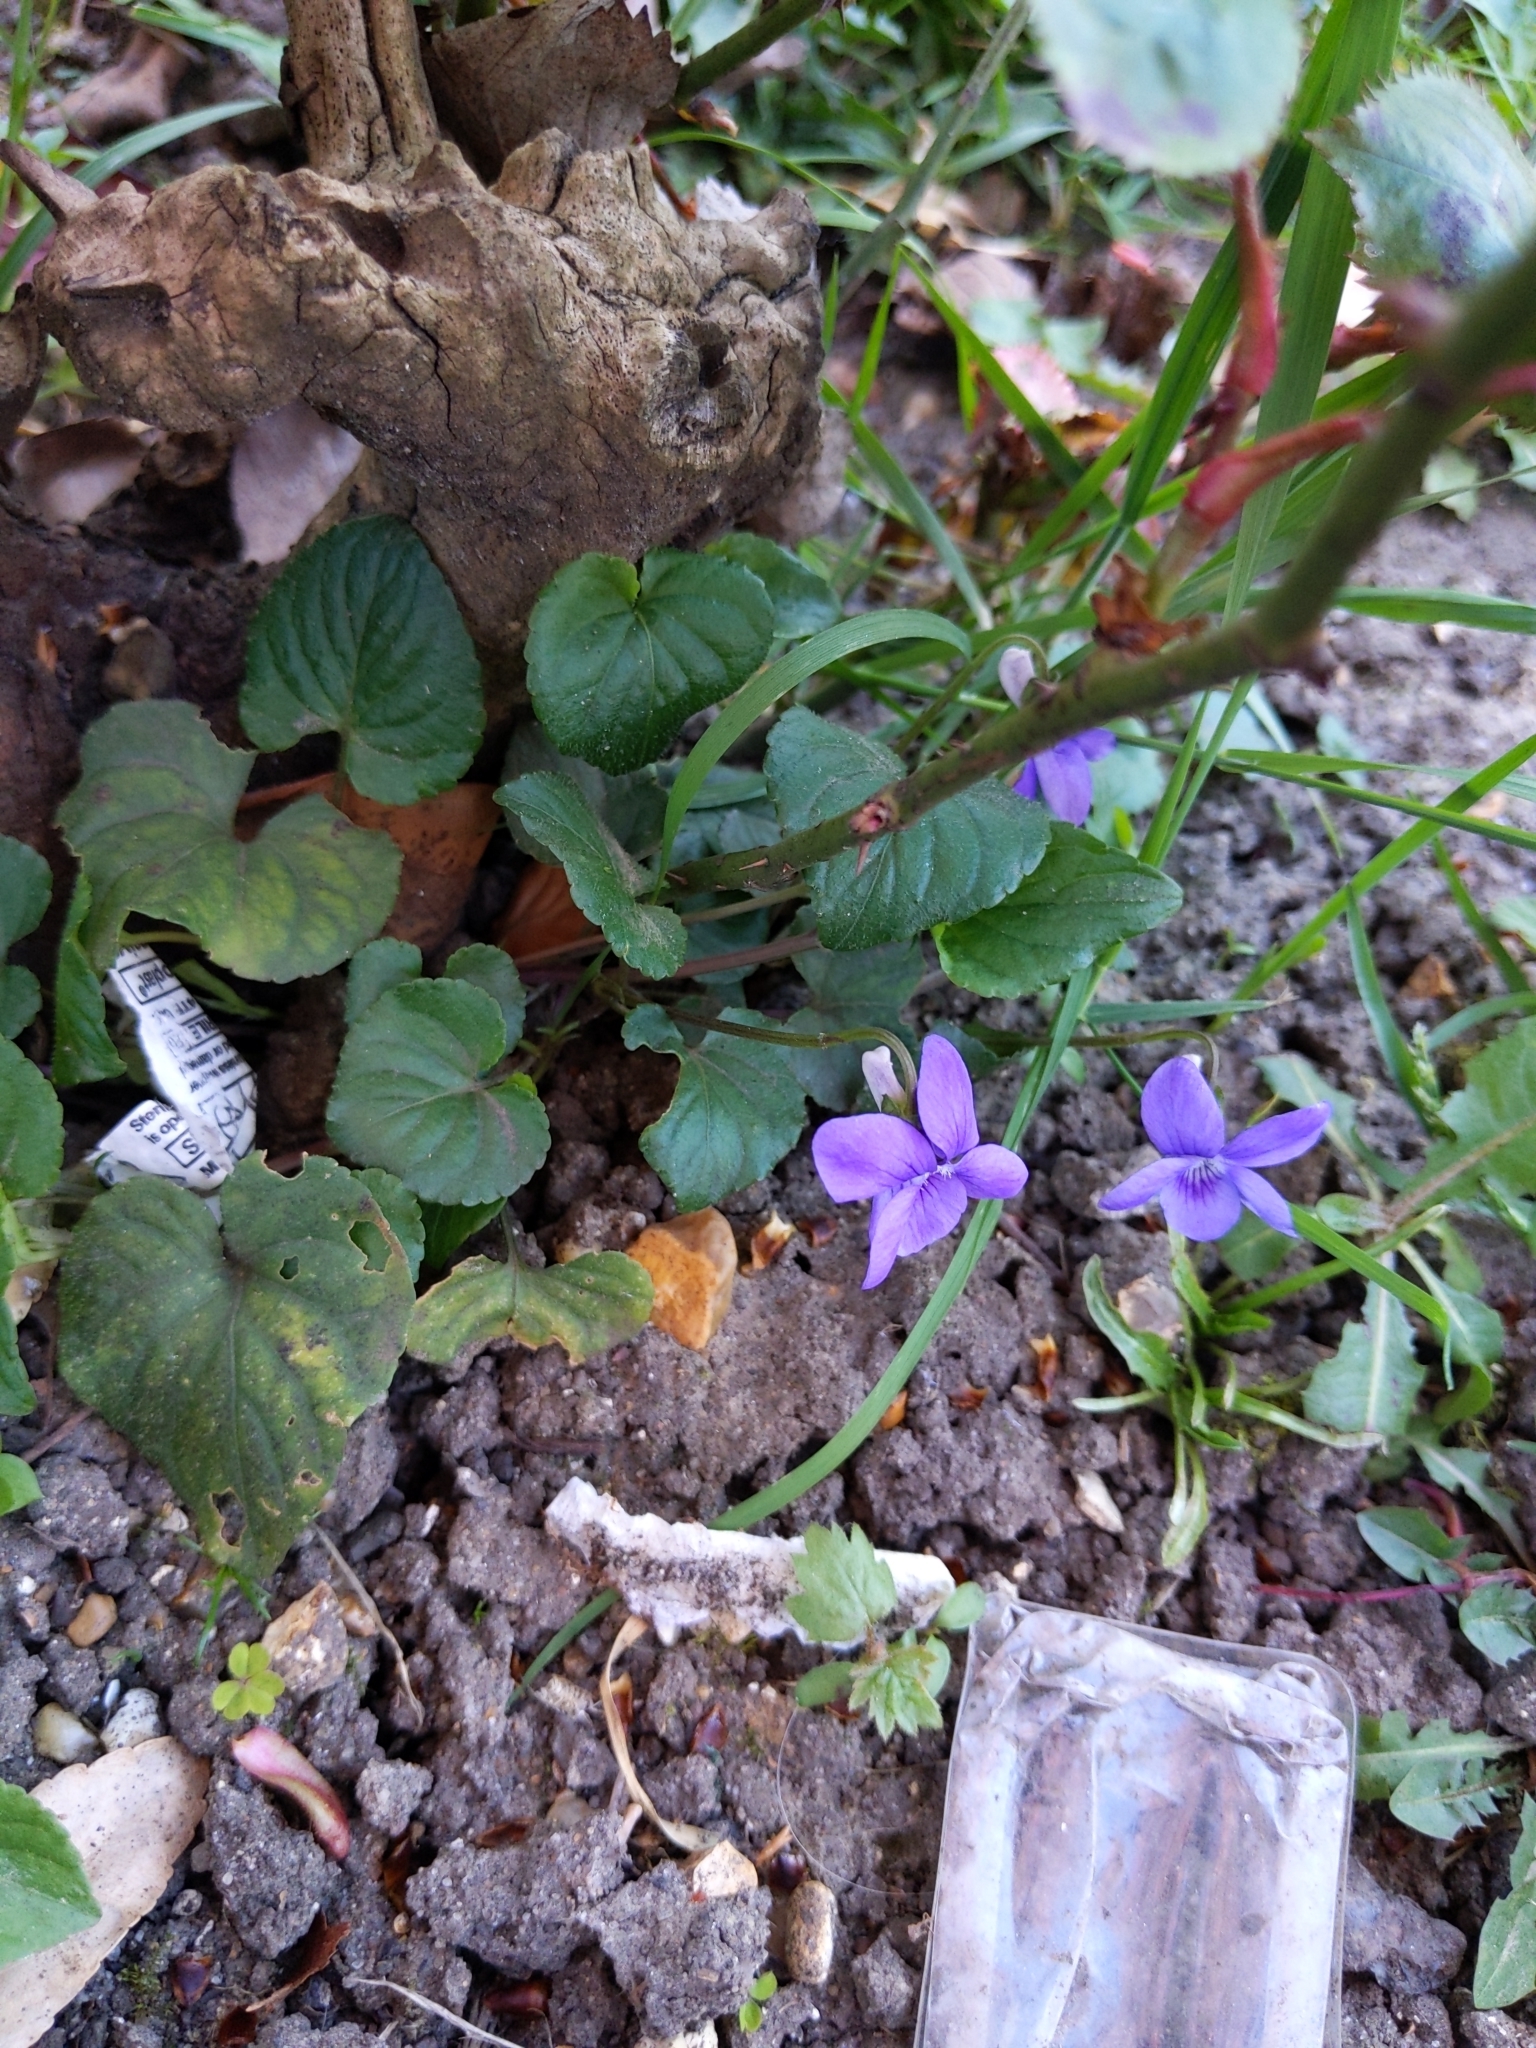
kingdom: Plantae
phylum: Tracheophyta
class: Magnoliopsida
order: Malpighiales
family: Violaceae
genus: Viola
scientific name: Viola riviniana
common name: Common dog-violet
